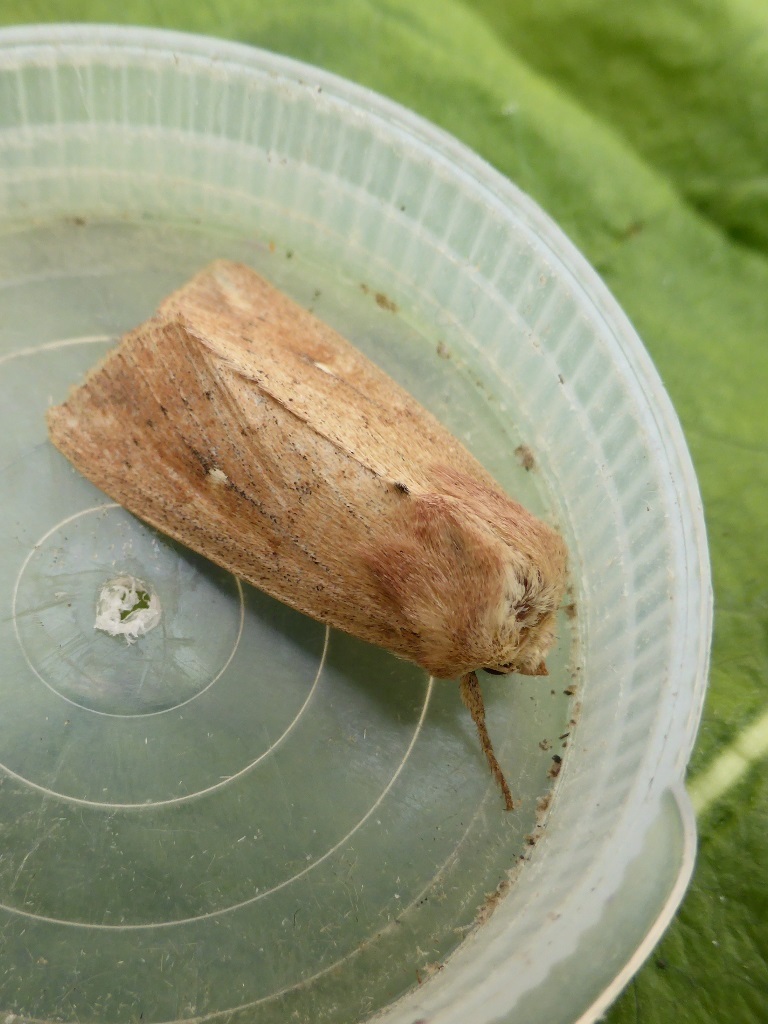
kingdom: Animalia
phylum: Arthropoda
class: Insecta
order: Lepidoptera
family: Noctuidae
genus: Mythimna
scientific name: Mythimna ferrago
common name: Clay
